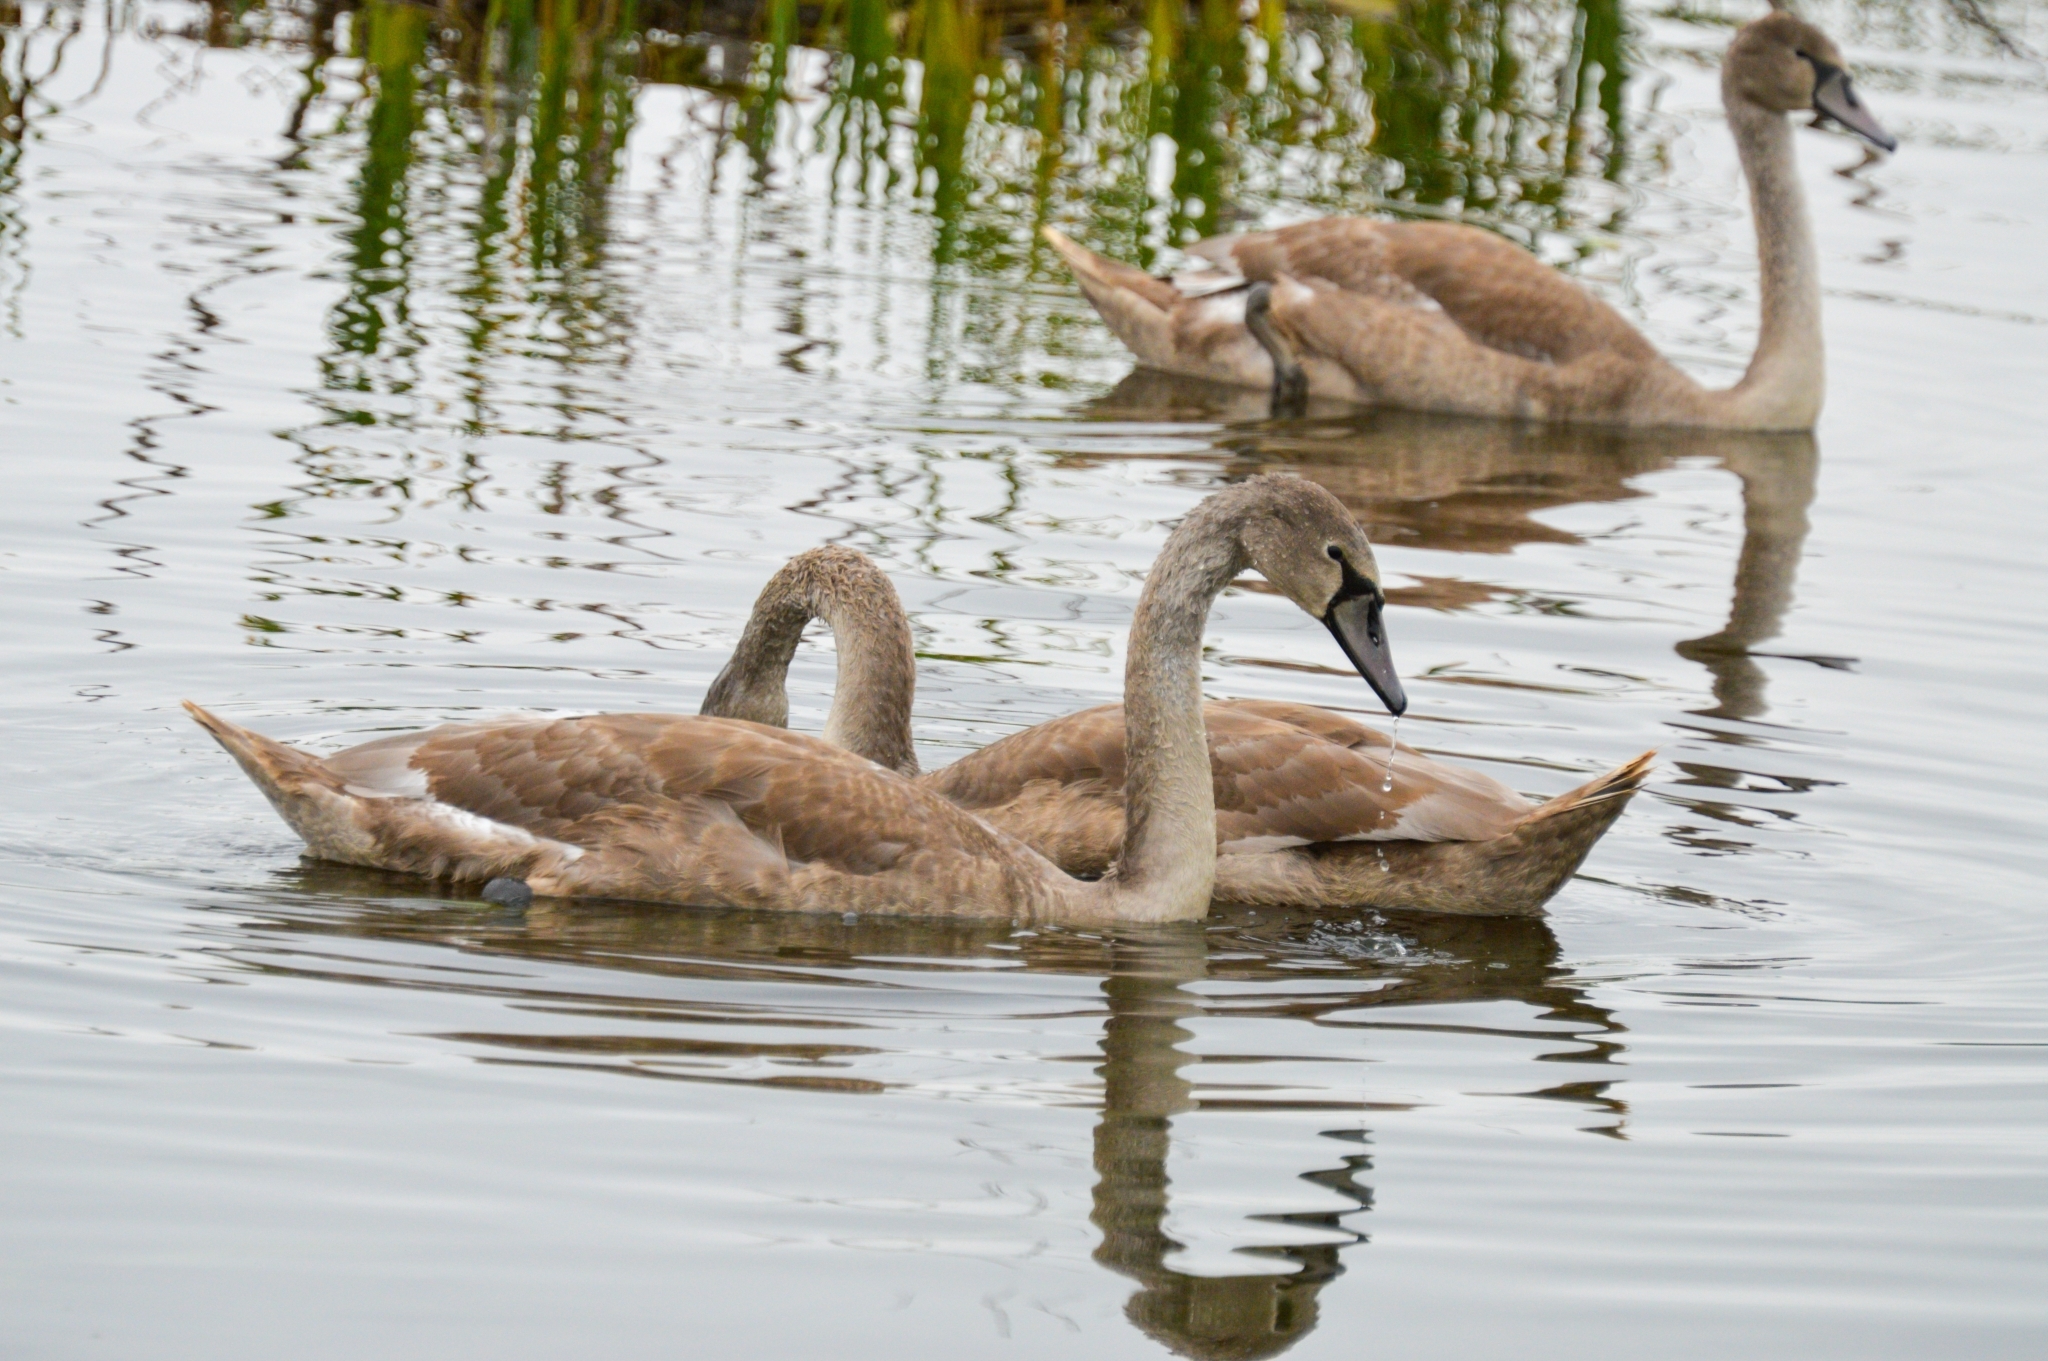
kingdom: Animalia
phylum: Chordata
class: Aves
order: Anseriformes
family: Anatidae
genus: Cygnus
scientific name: Cygnus olor
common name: Mute swan
